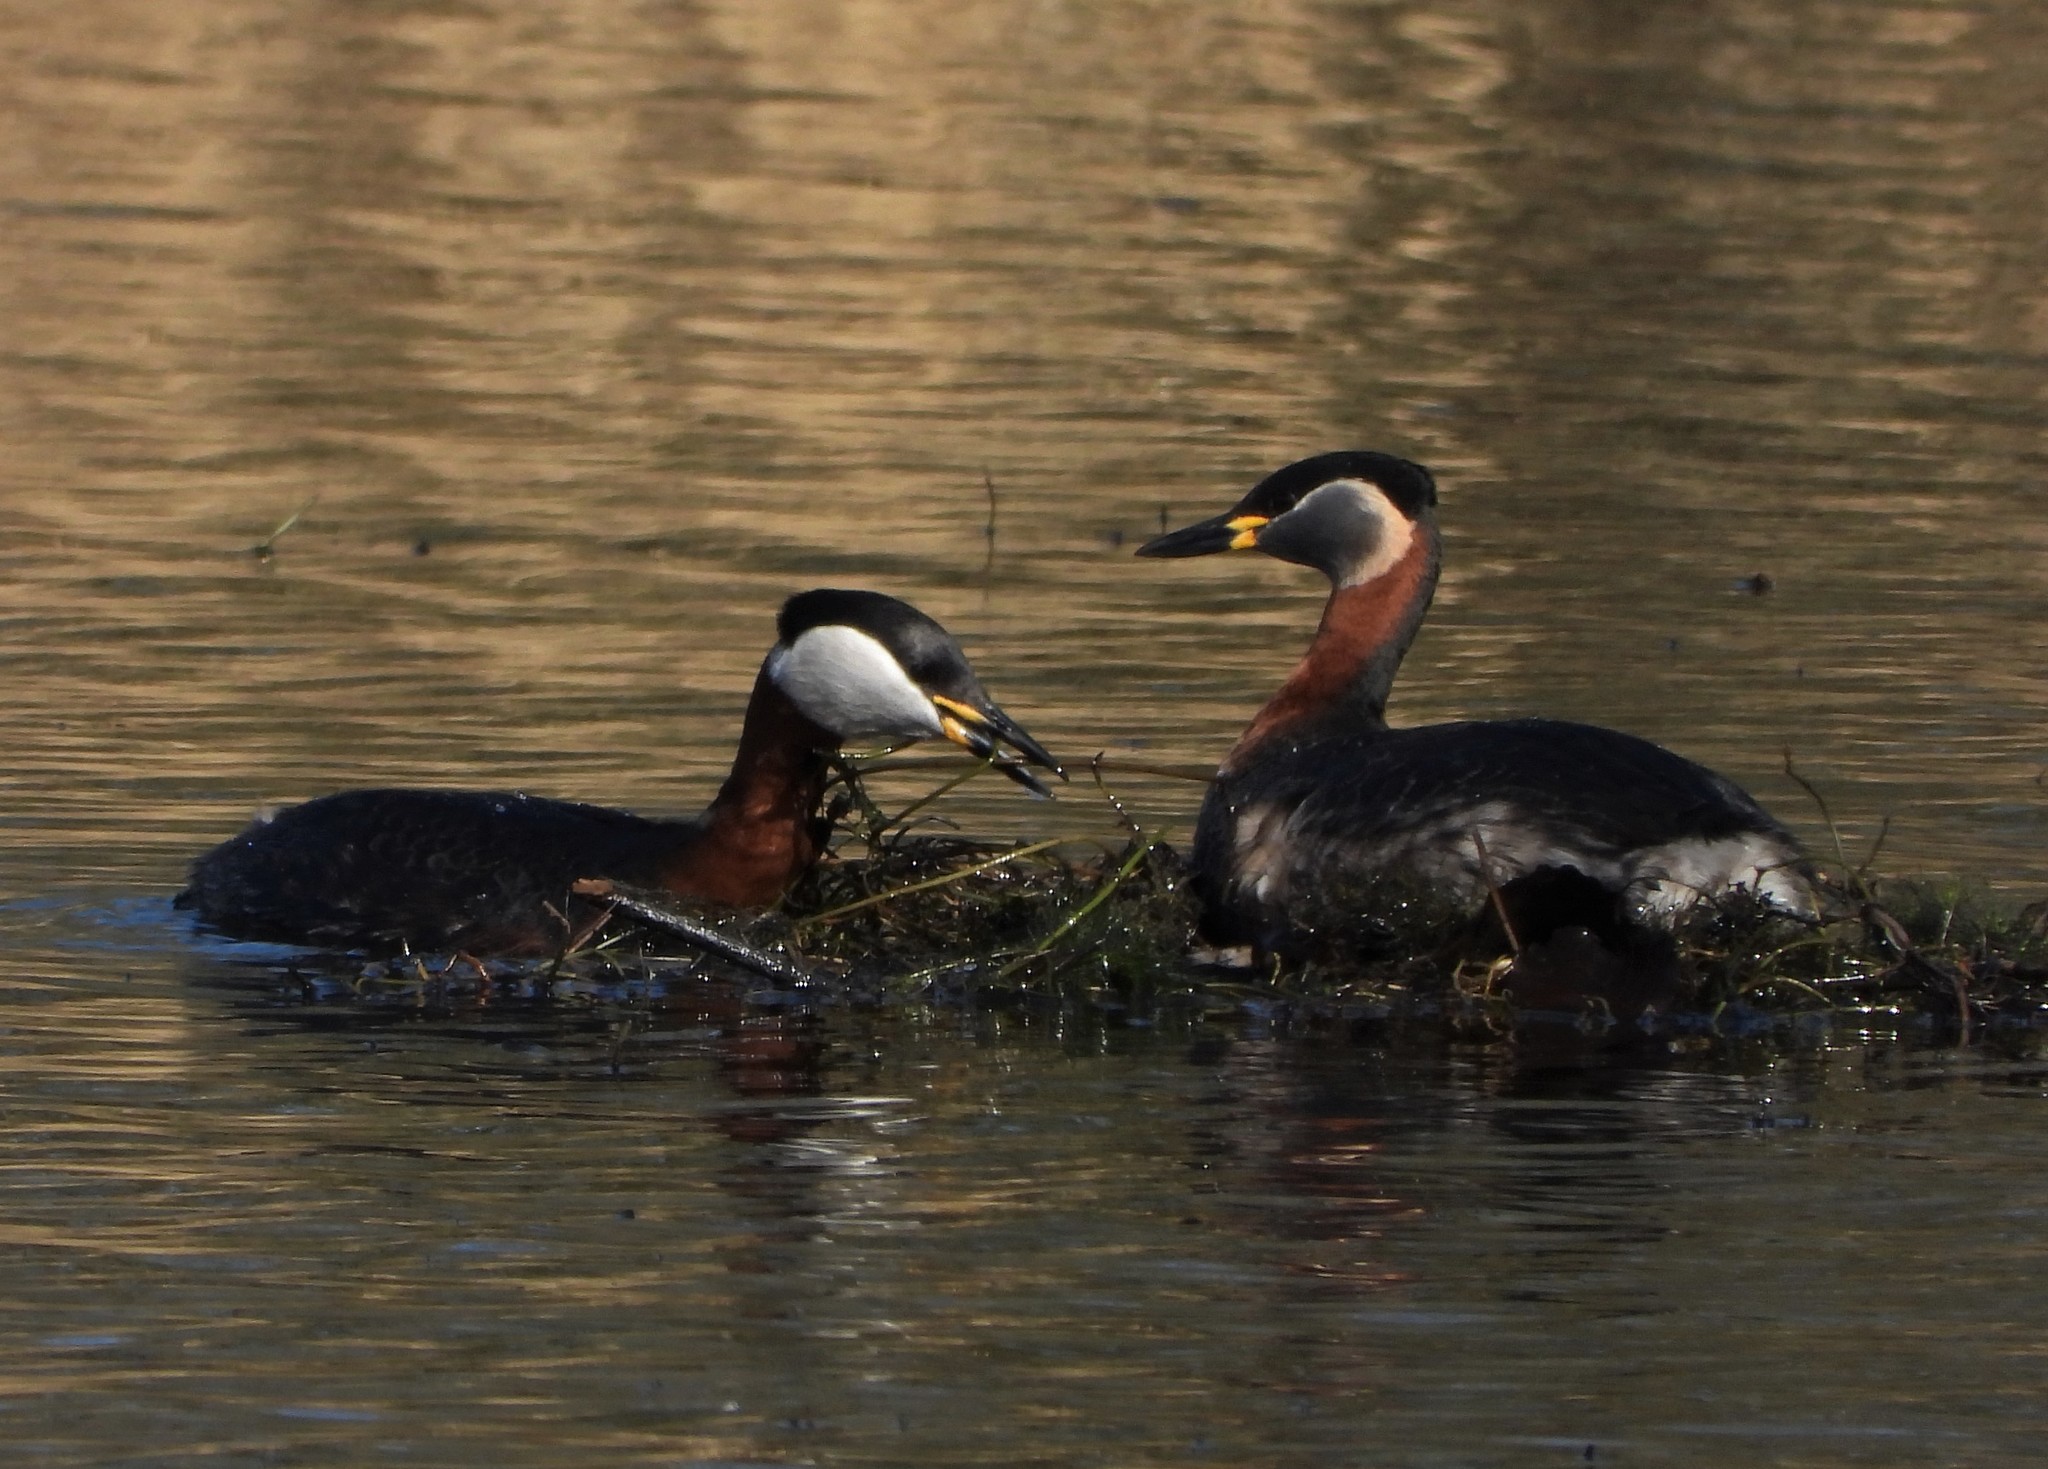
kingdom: Animalia
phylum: Chordata
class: Aves
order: Podicipediformes
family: Podicipedidae
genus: Podiceps
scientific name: Podiceps grisegena
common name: Red-necked grebe
